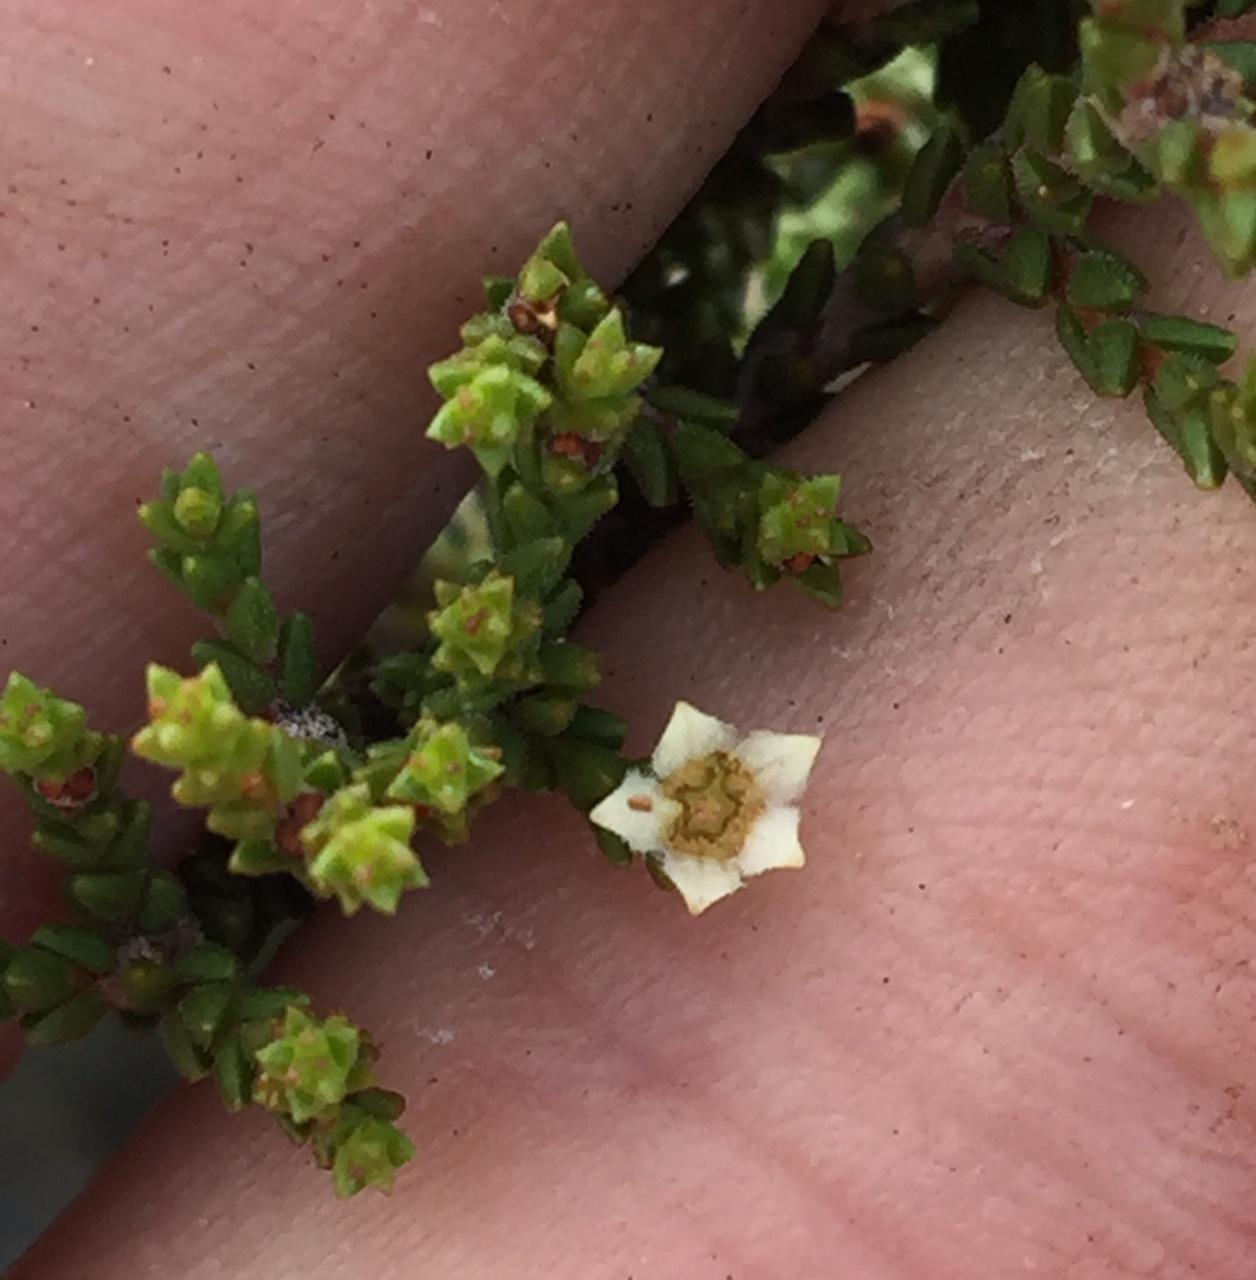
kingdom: Plantae
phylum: Tracheophyta
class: Magnoliopsida
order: Sapindales
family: Rutaceae
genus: Diosma
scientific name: Diosma apetala
